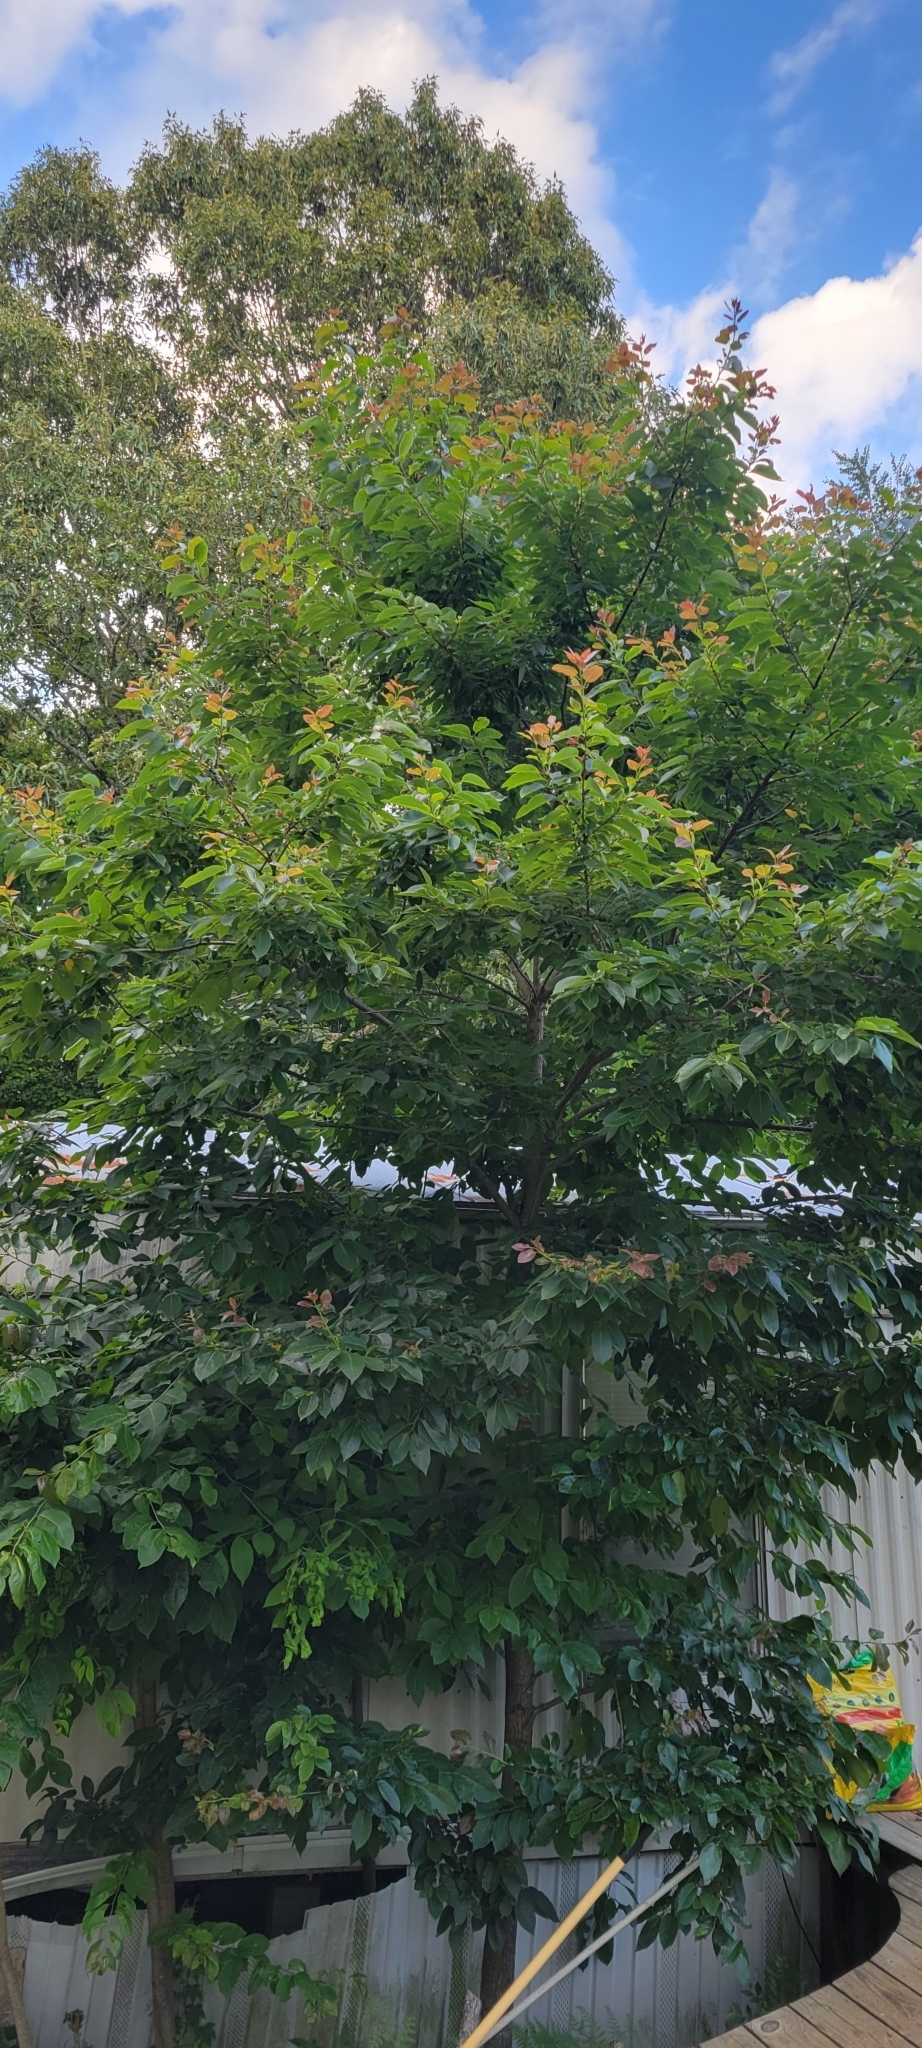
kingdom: Plantae
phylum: Tracheophyta
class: Magnoliopsida
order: Ericales
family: Ebenaceae
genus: Diospyros
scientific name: Diospyros virginiana
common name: Persimmon
